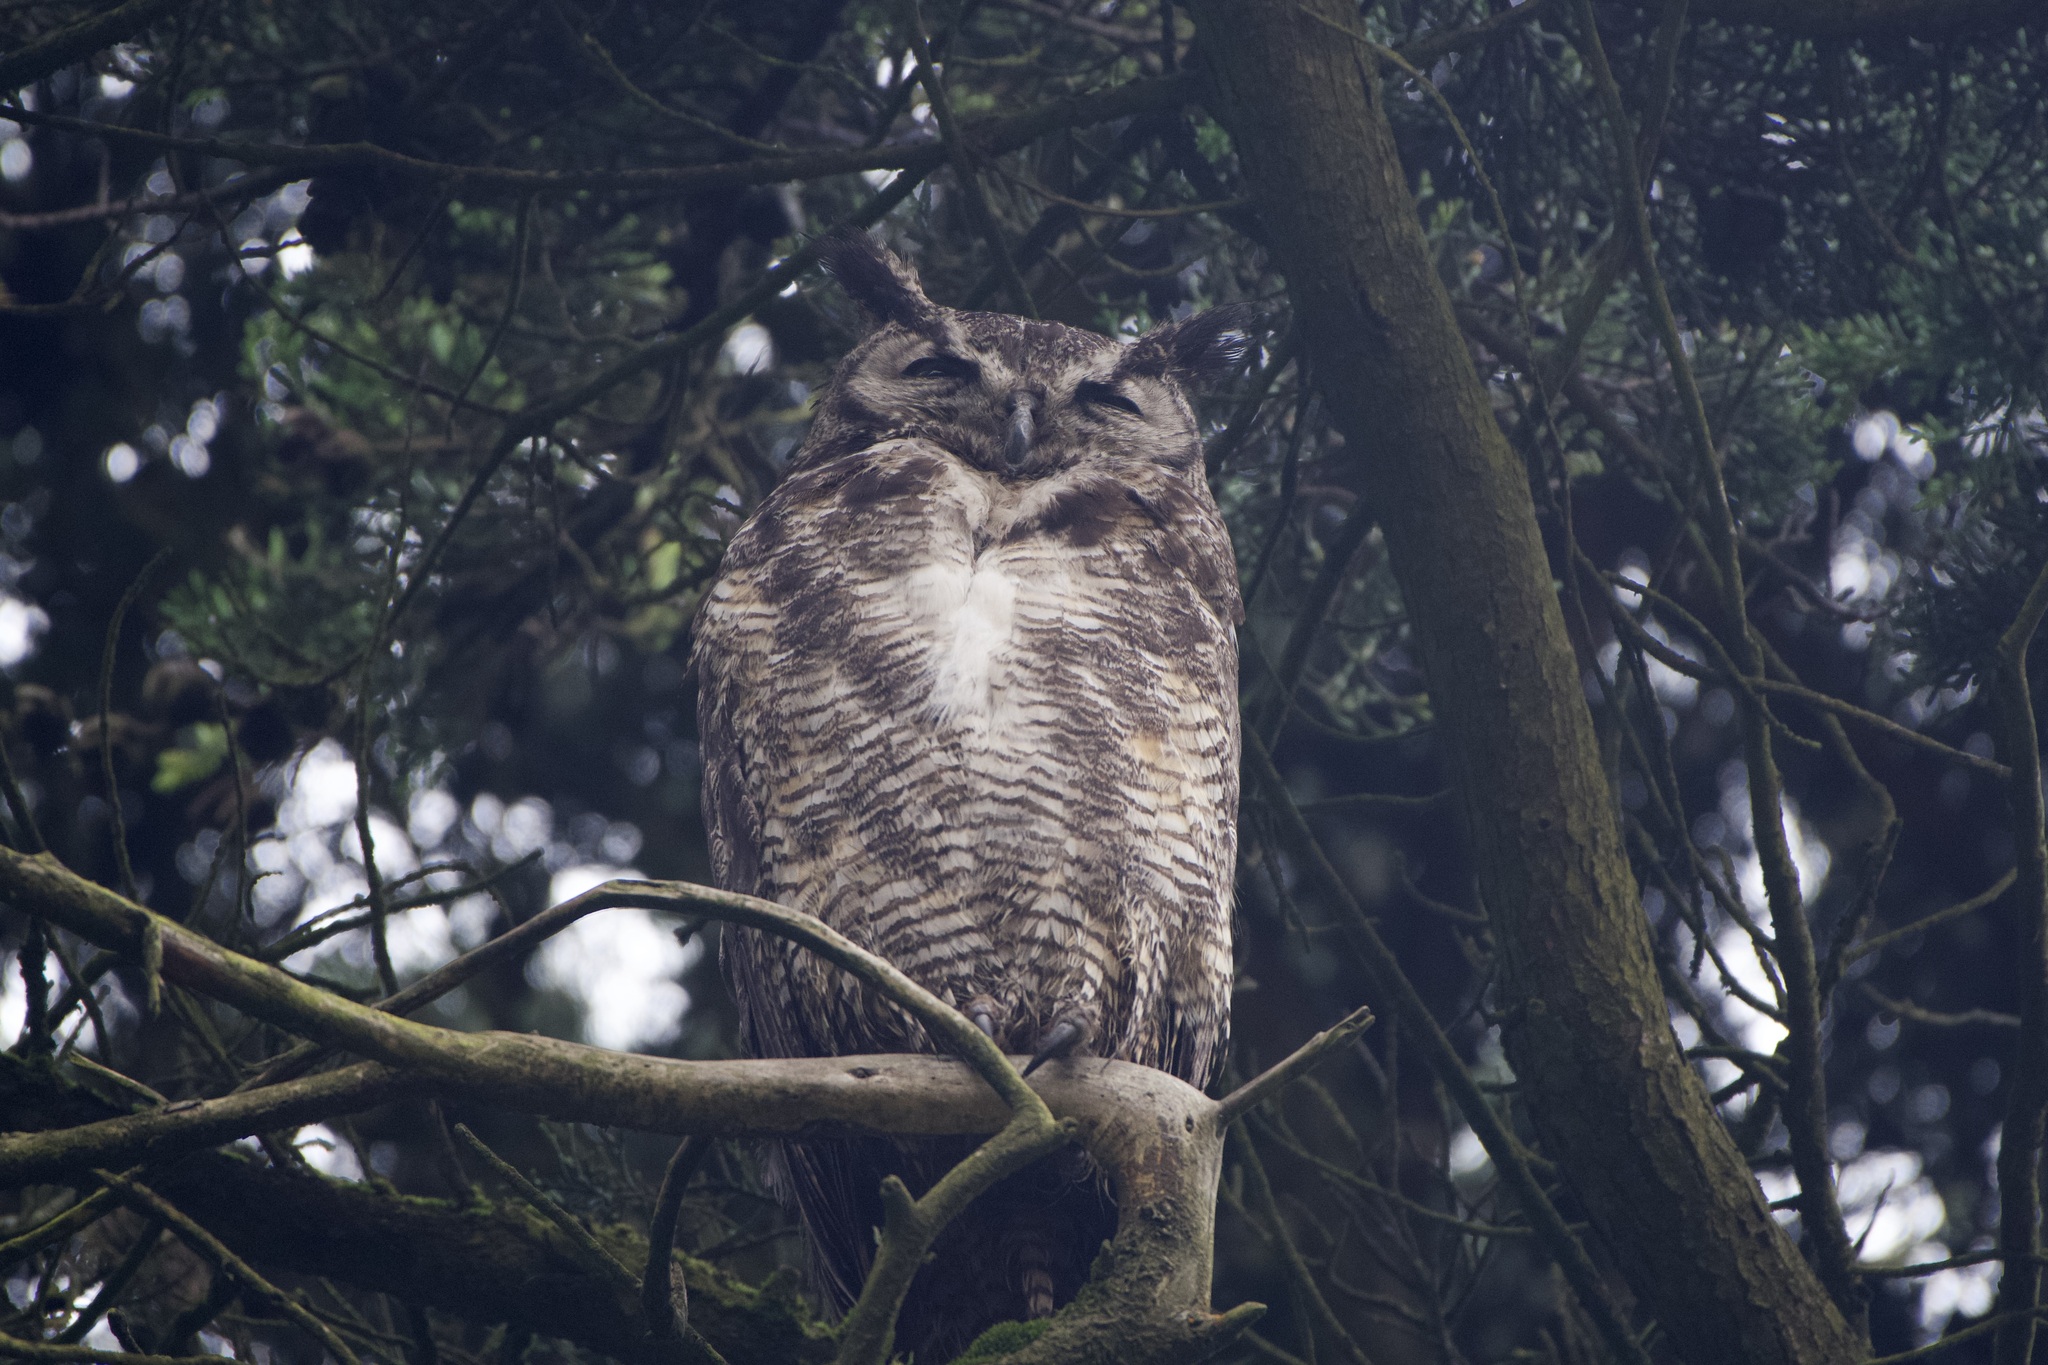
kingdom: Animalia
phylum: Chordata
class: Aves
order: Strigiformes
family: Strigidae
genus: Bubo
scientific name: Bubo virginianus
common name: Great horned owl
